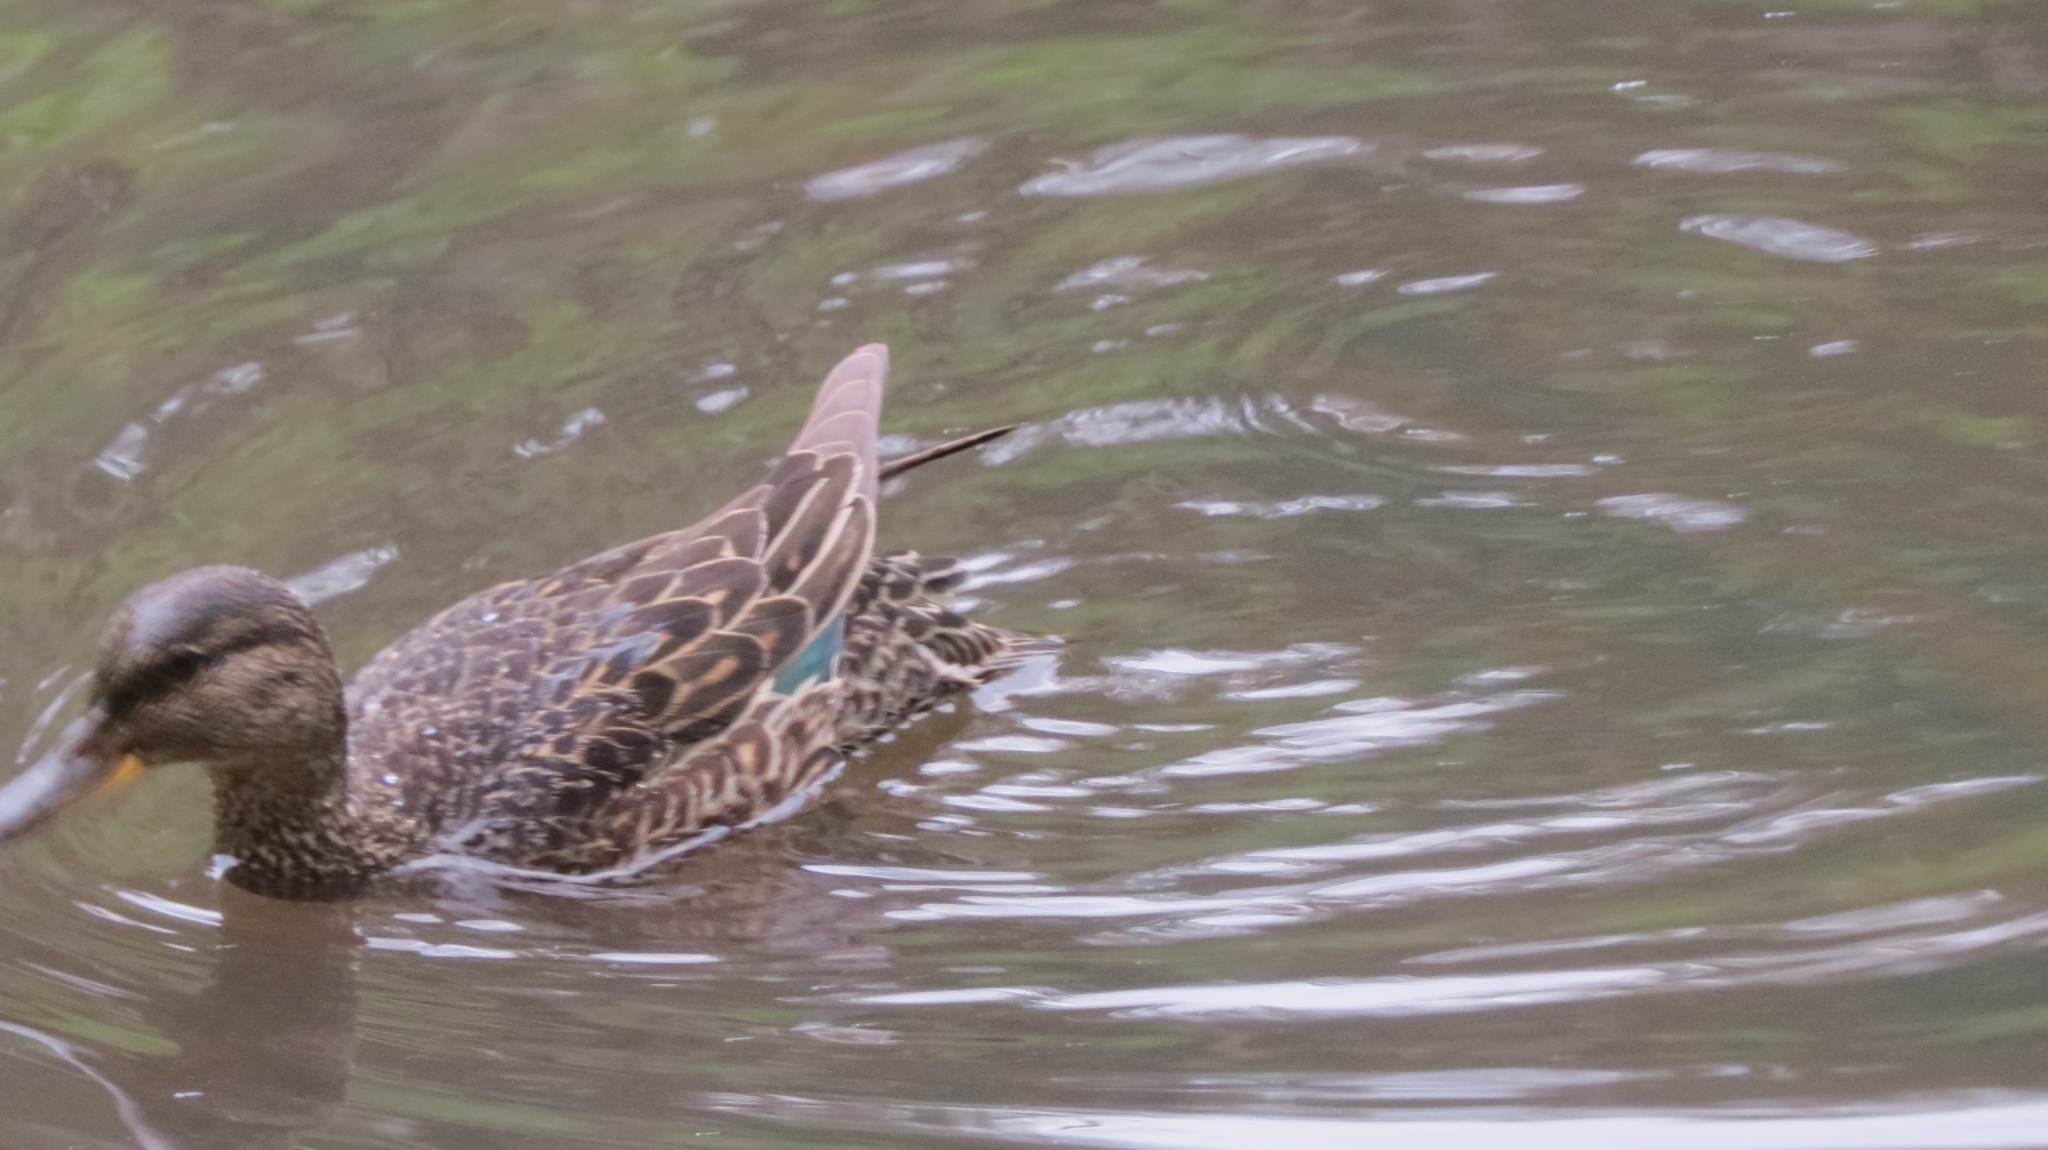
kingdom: Animalia
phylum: Chordata
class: Aves
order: Anseriformes
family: Anatidae
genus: Anas
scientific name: Anas crecca
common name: Eurasian teal
